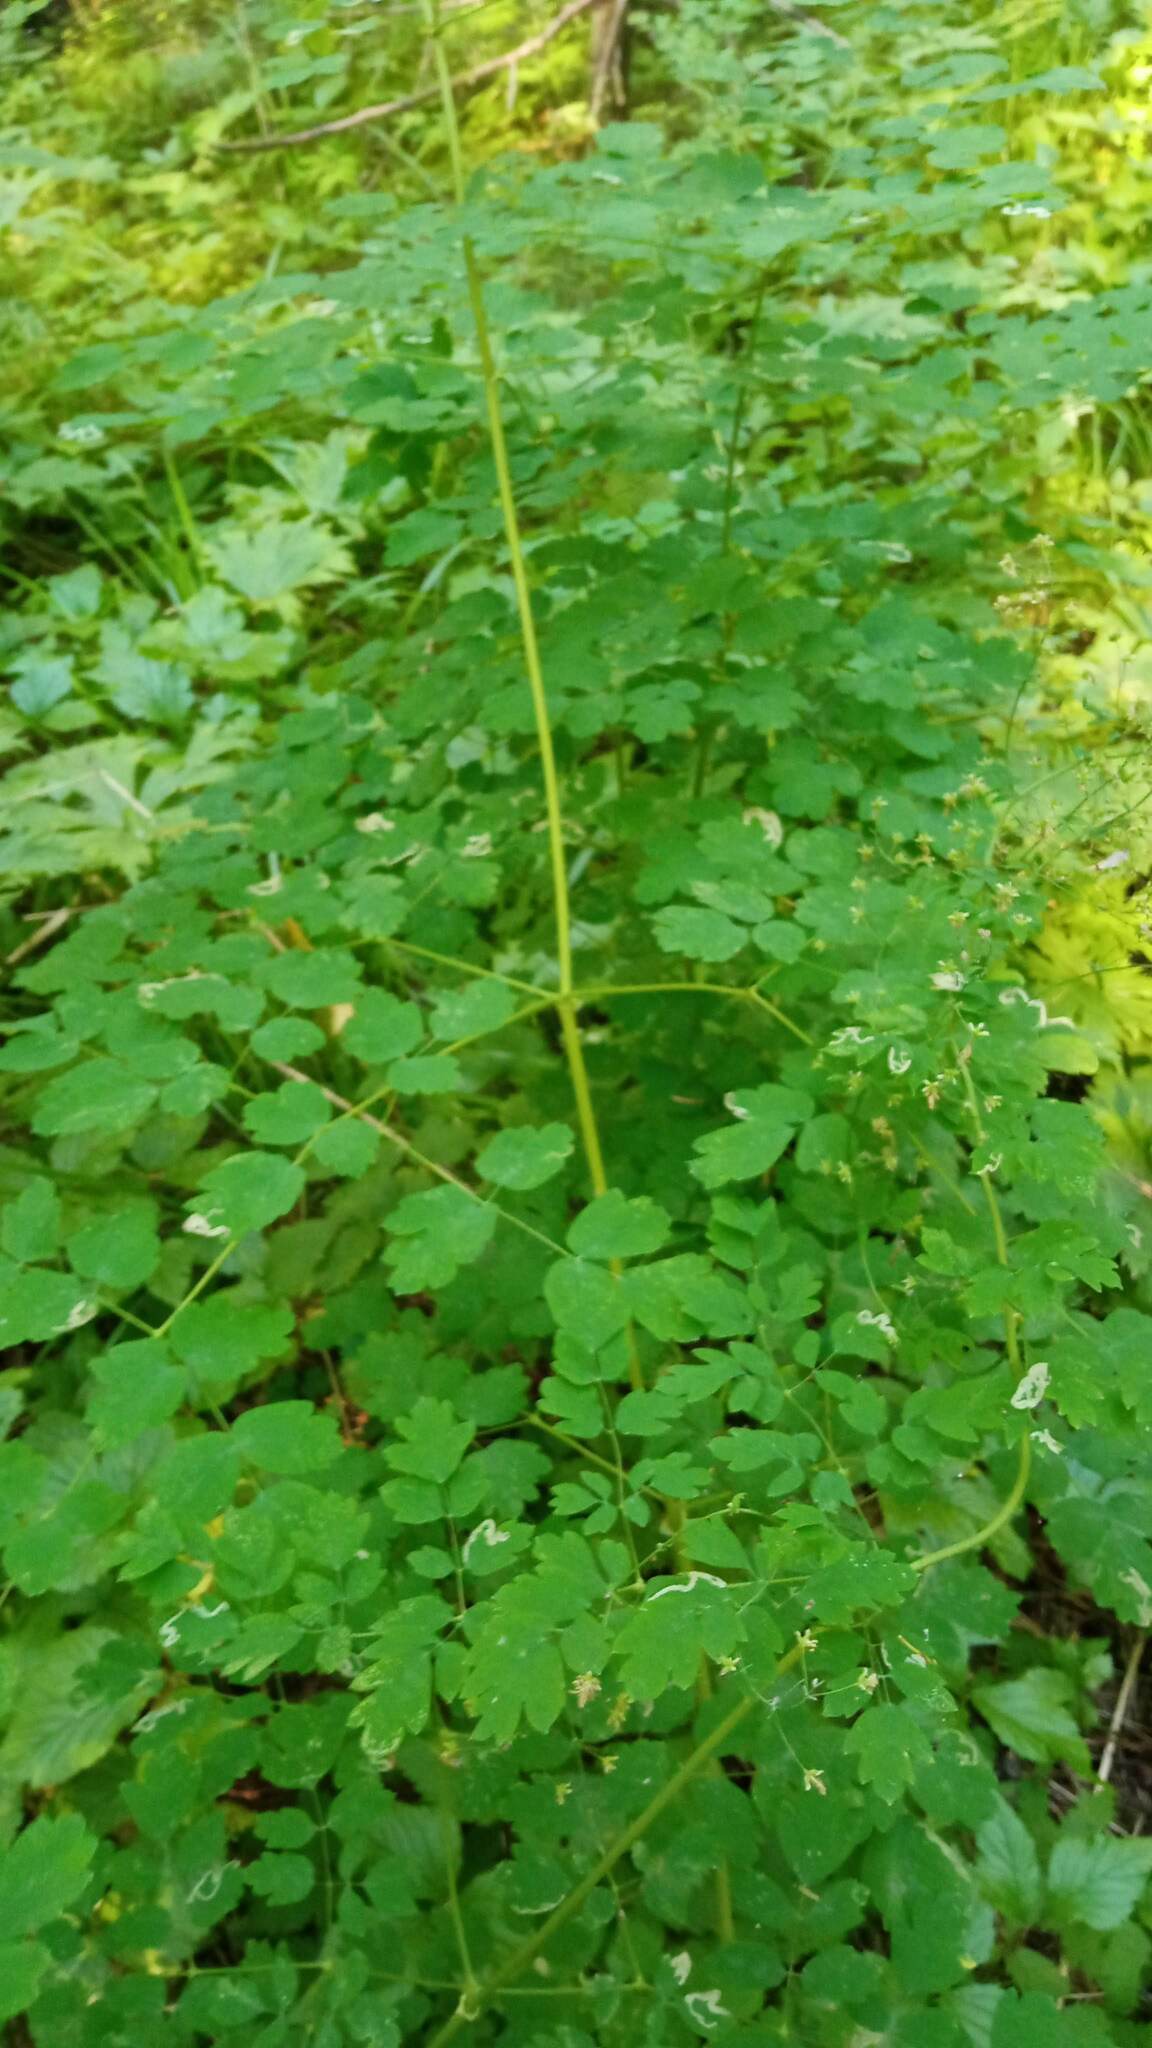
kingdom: Plantae
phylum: Tracheophyta
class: Magnoliopsida
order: Ranunculales
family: Ranunculaceae
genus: Thalictrum
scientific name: Thalictrum minus
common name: Lesser meadow-rue
